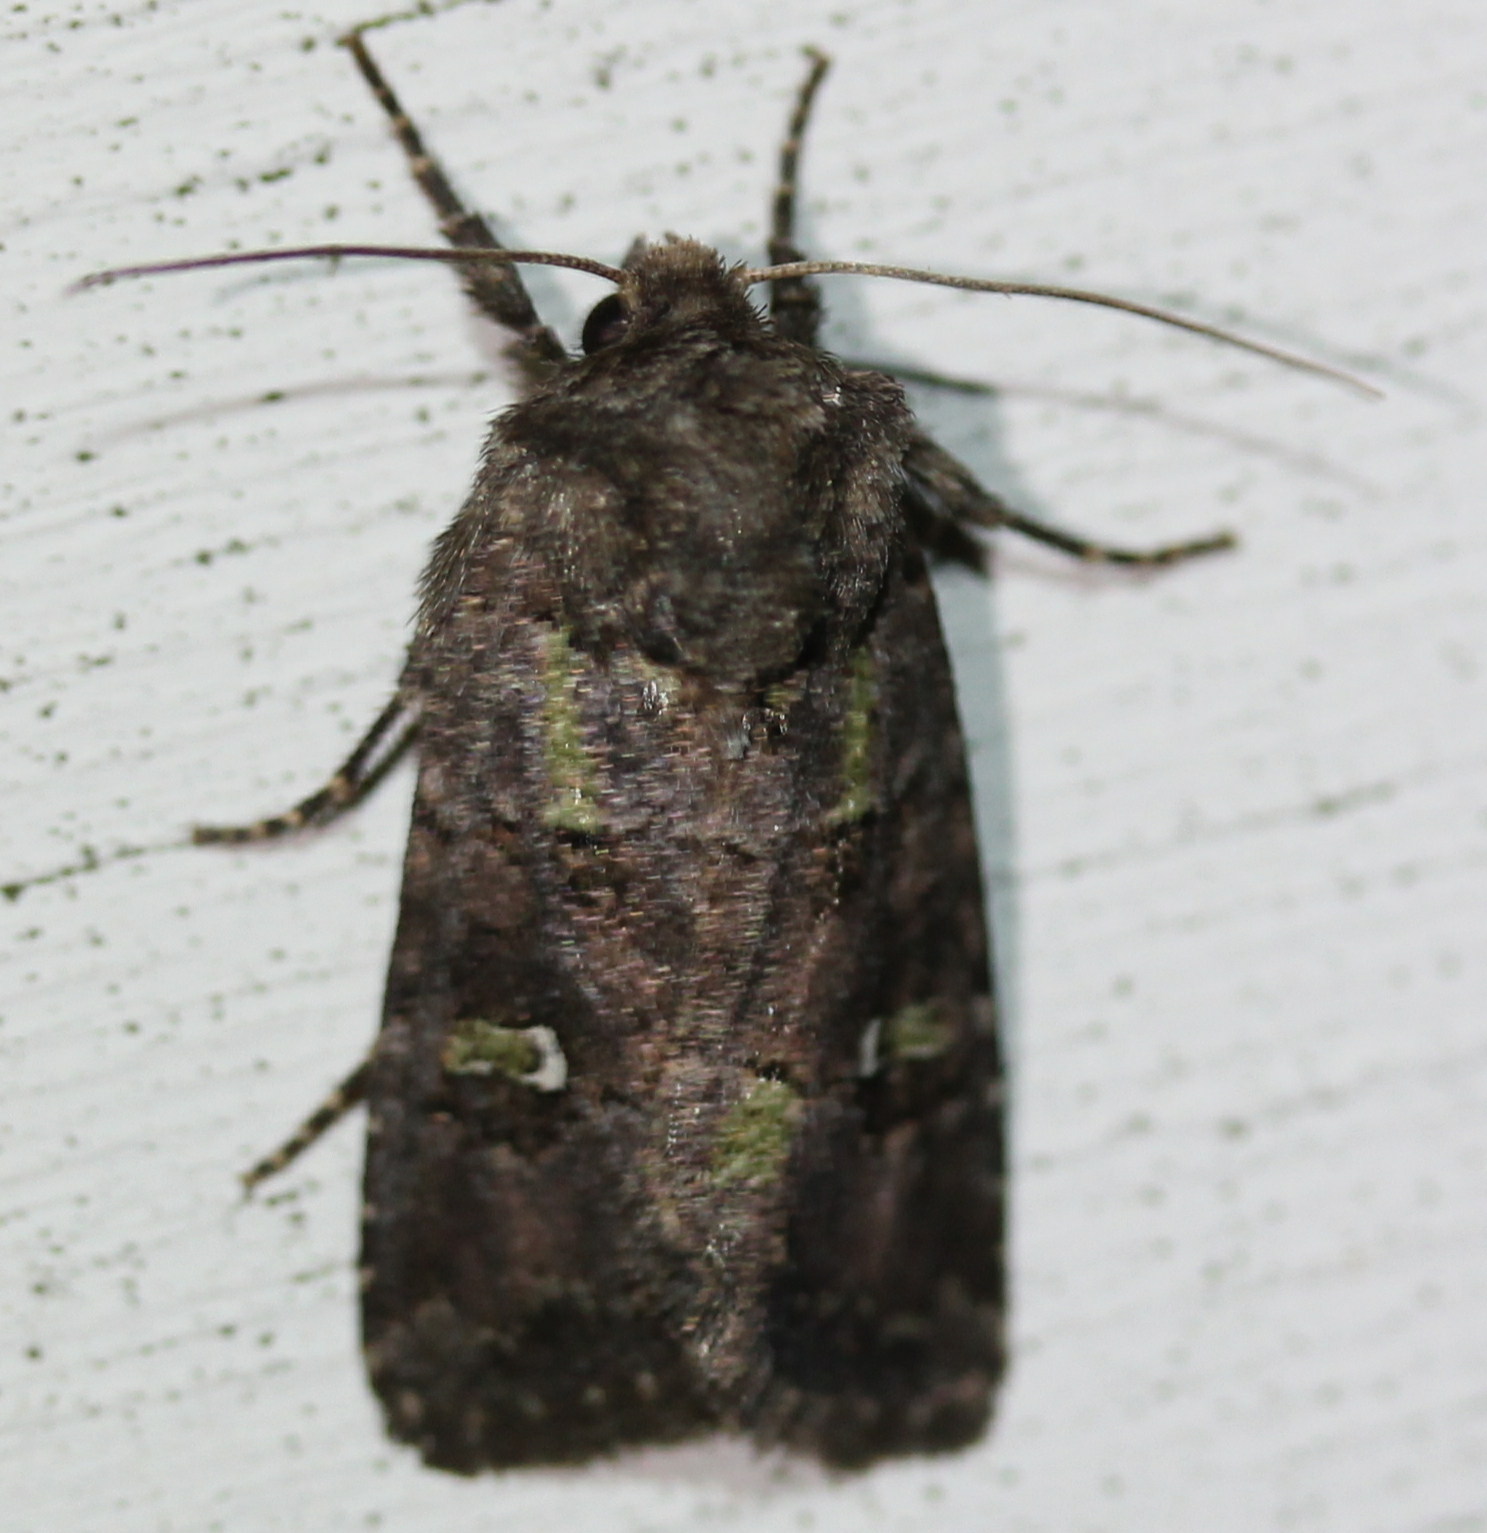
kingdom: Animalia
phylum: Arthropoda
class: Insecta
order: Lepidoptera
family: Noctuidae
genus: Lacinipolia
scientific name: Lacinipolia renigera
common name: Kidney-spotted minor
